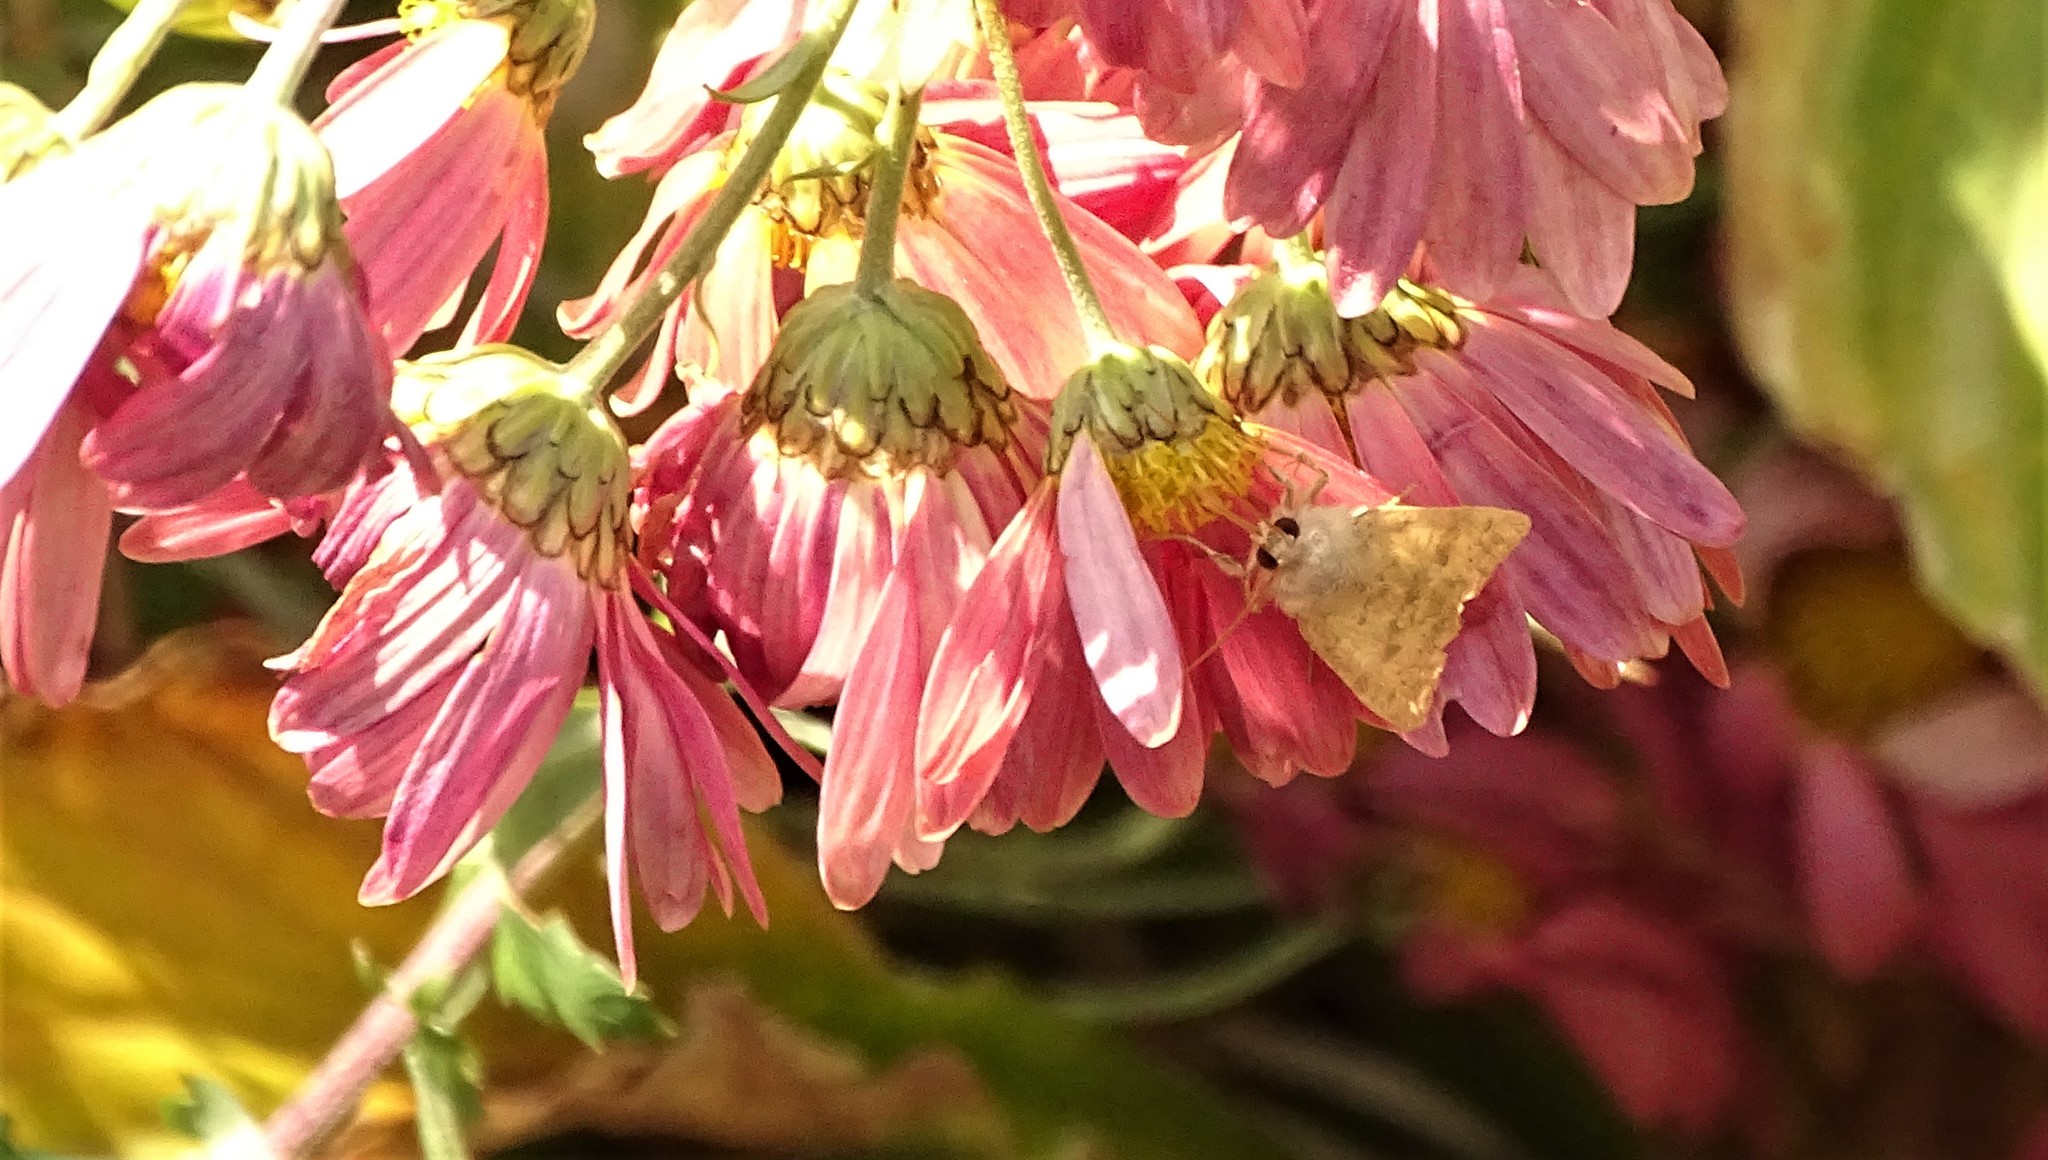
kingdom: Animalia
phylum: Arthropoda
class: Insecta
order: Lepidoptera
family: Noctuidae
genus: Agrochola
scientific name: Agrochola bicolorago
